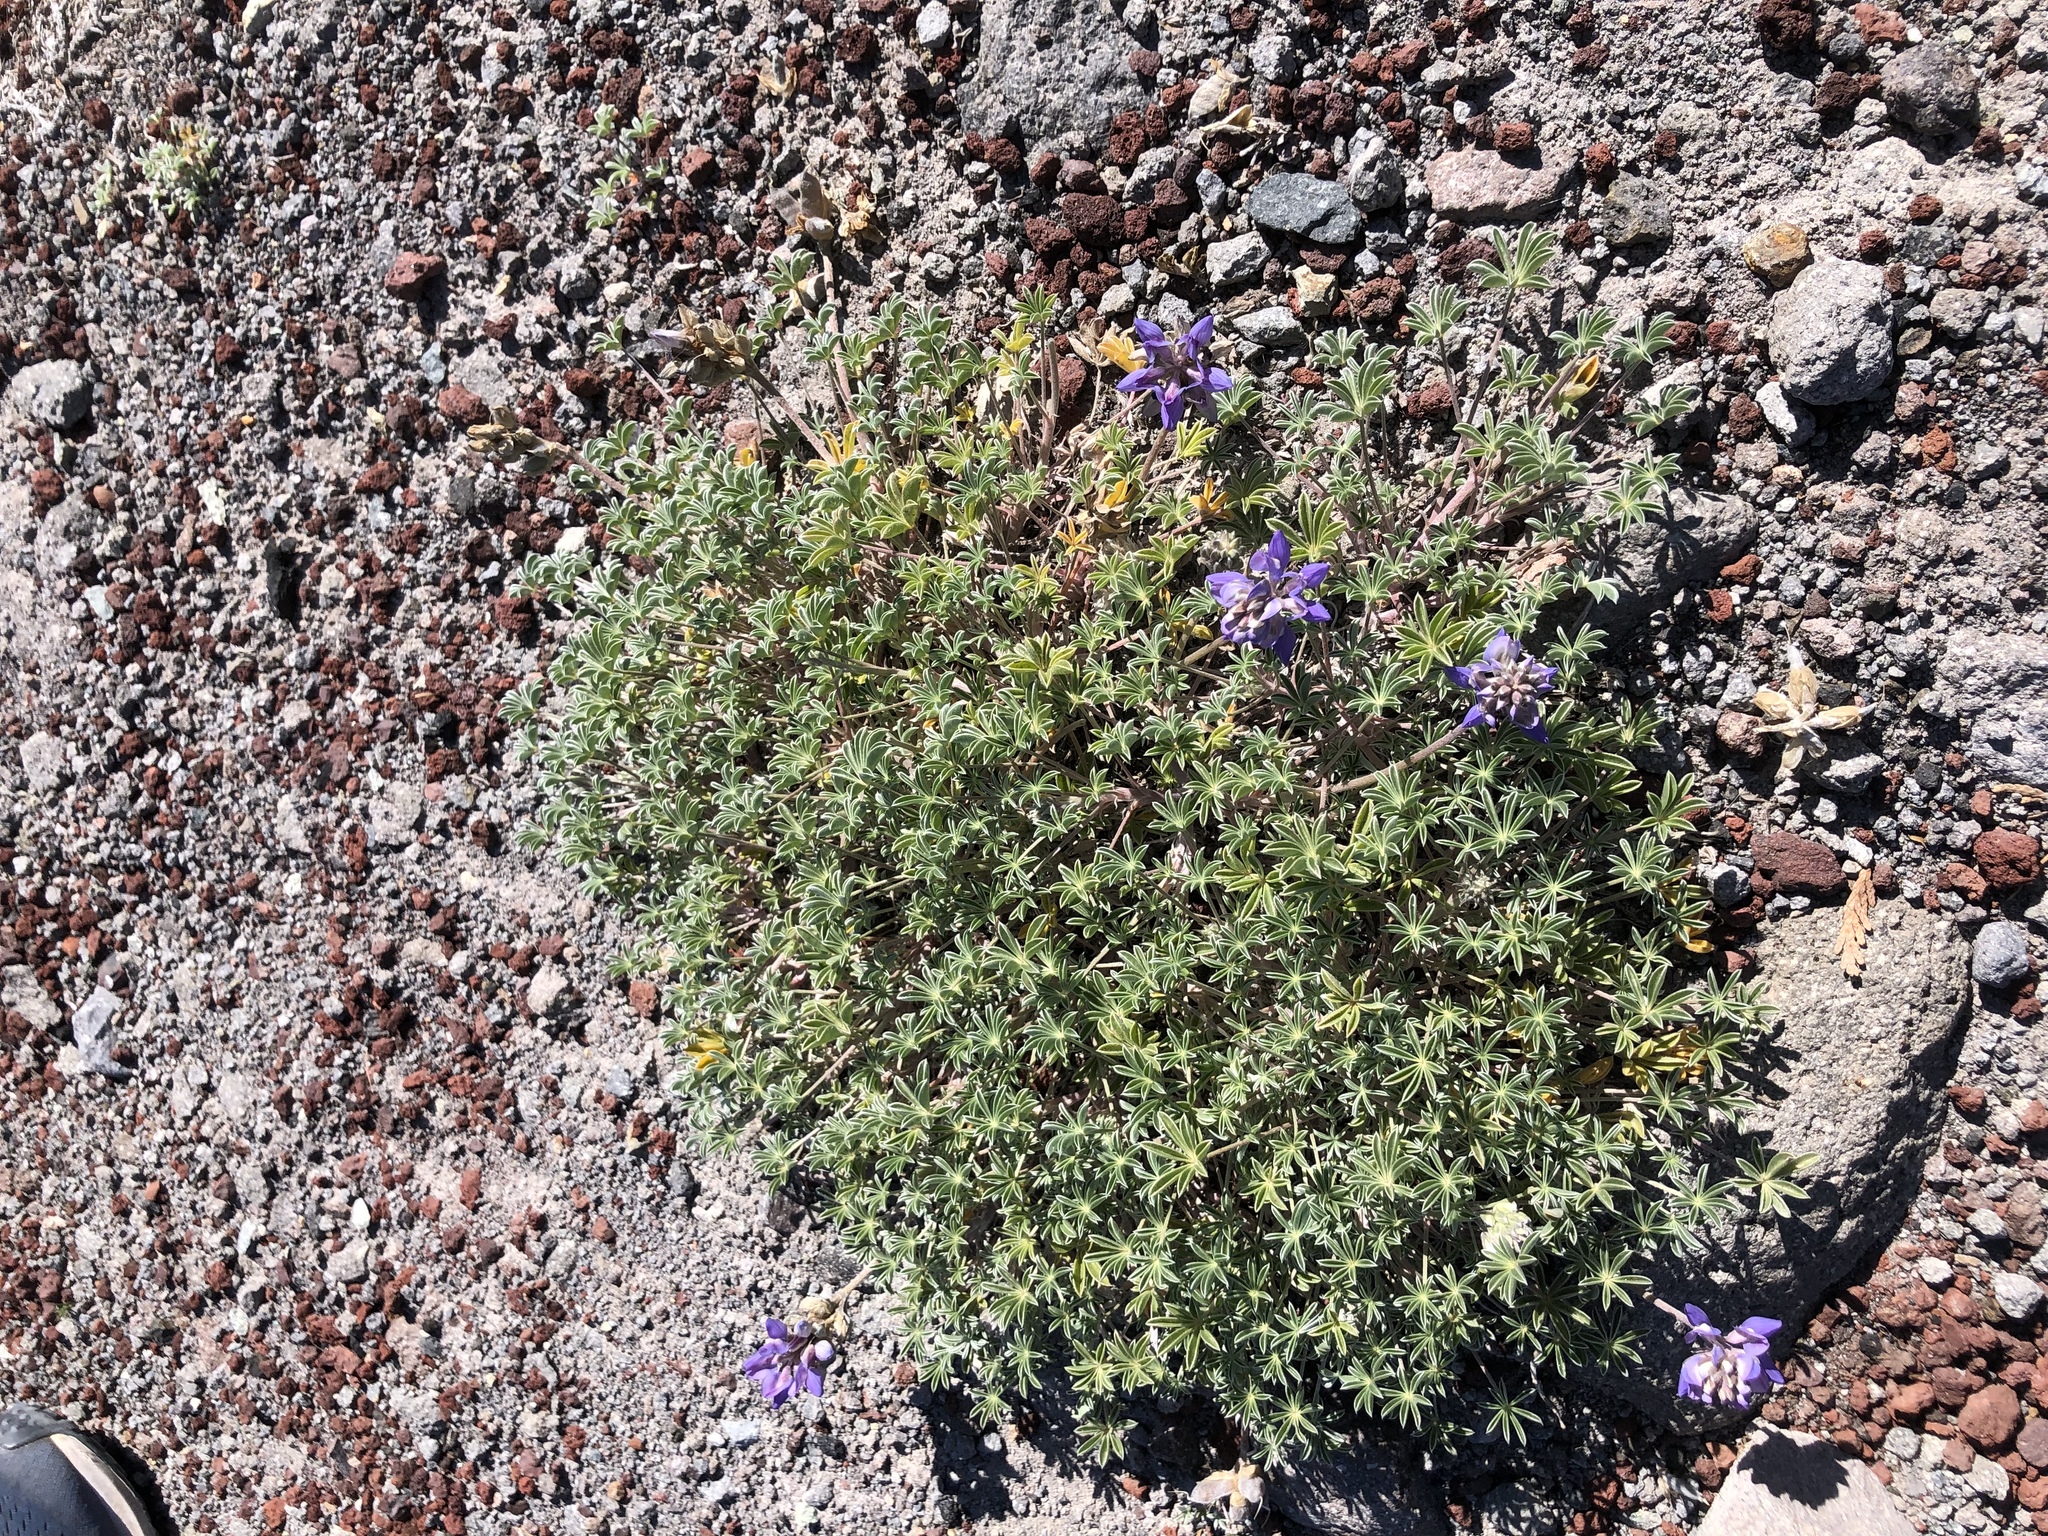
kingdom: Plantae
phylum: Tracheophyta
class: Magnoliopsida
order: Fabales
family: Fabaceae
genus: Lupinus
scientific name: Lupinus lepidus
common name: Prairie lupine
